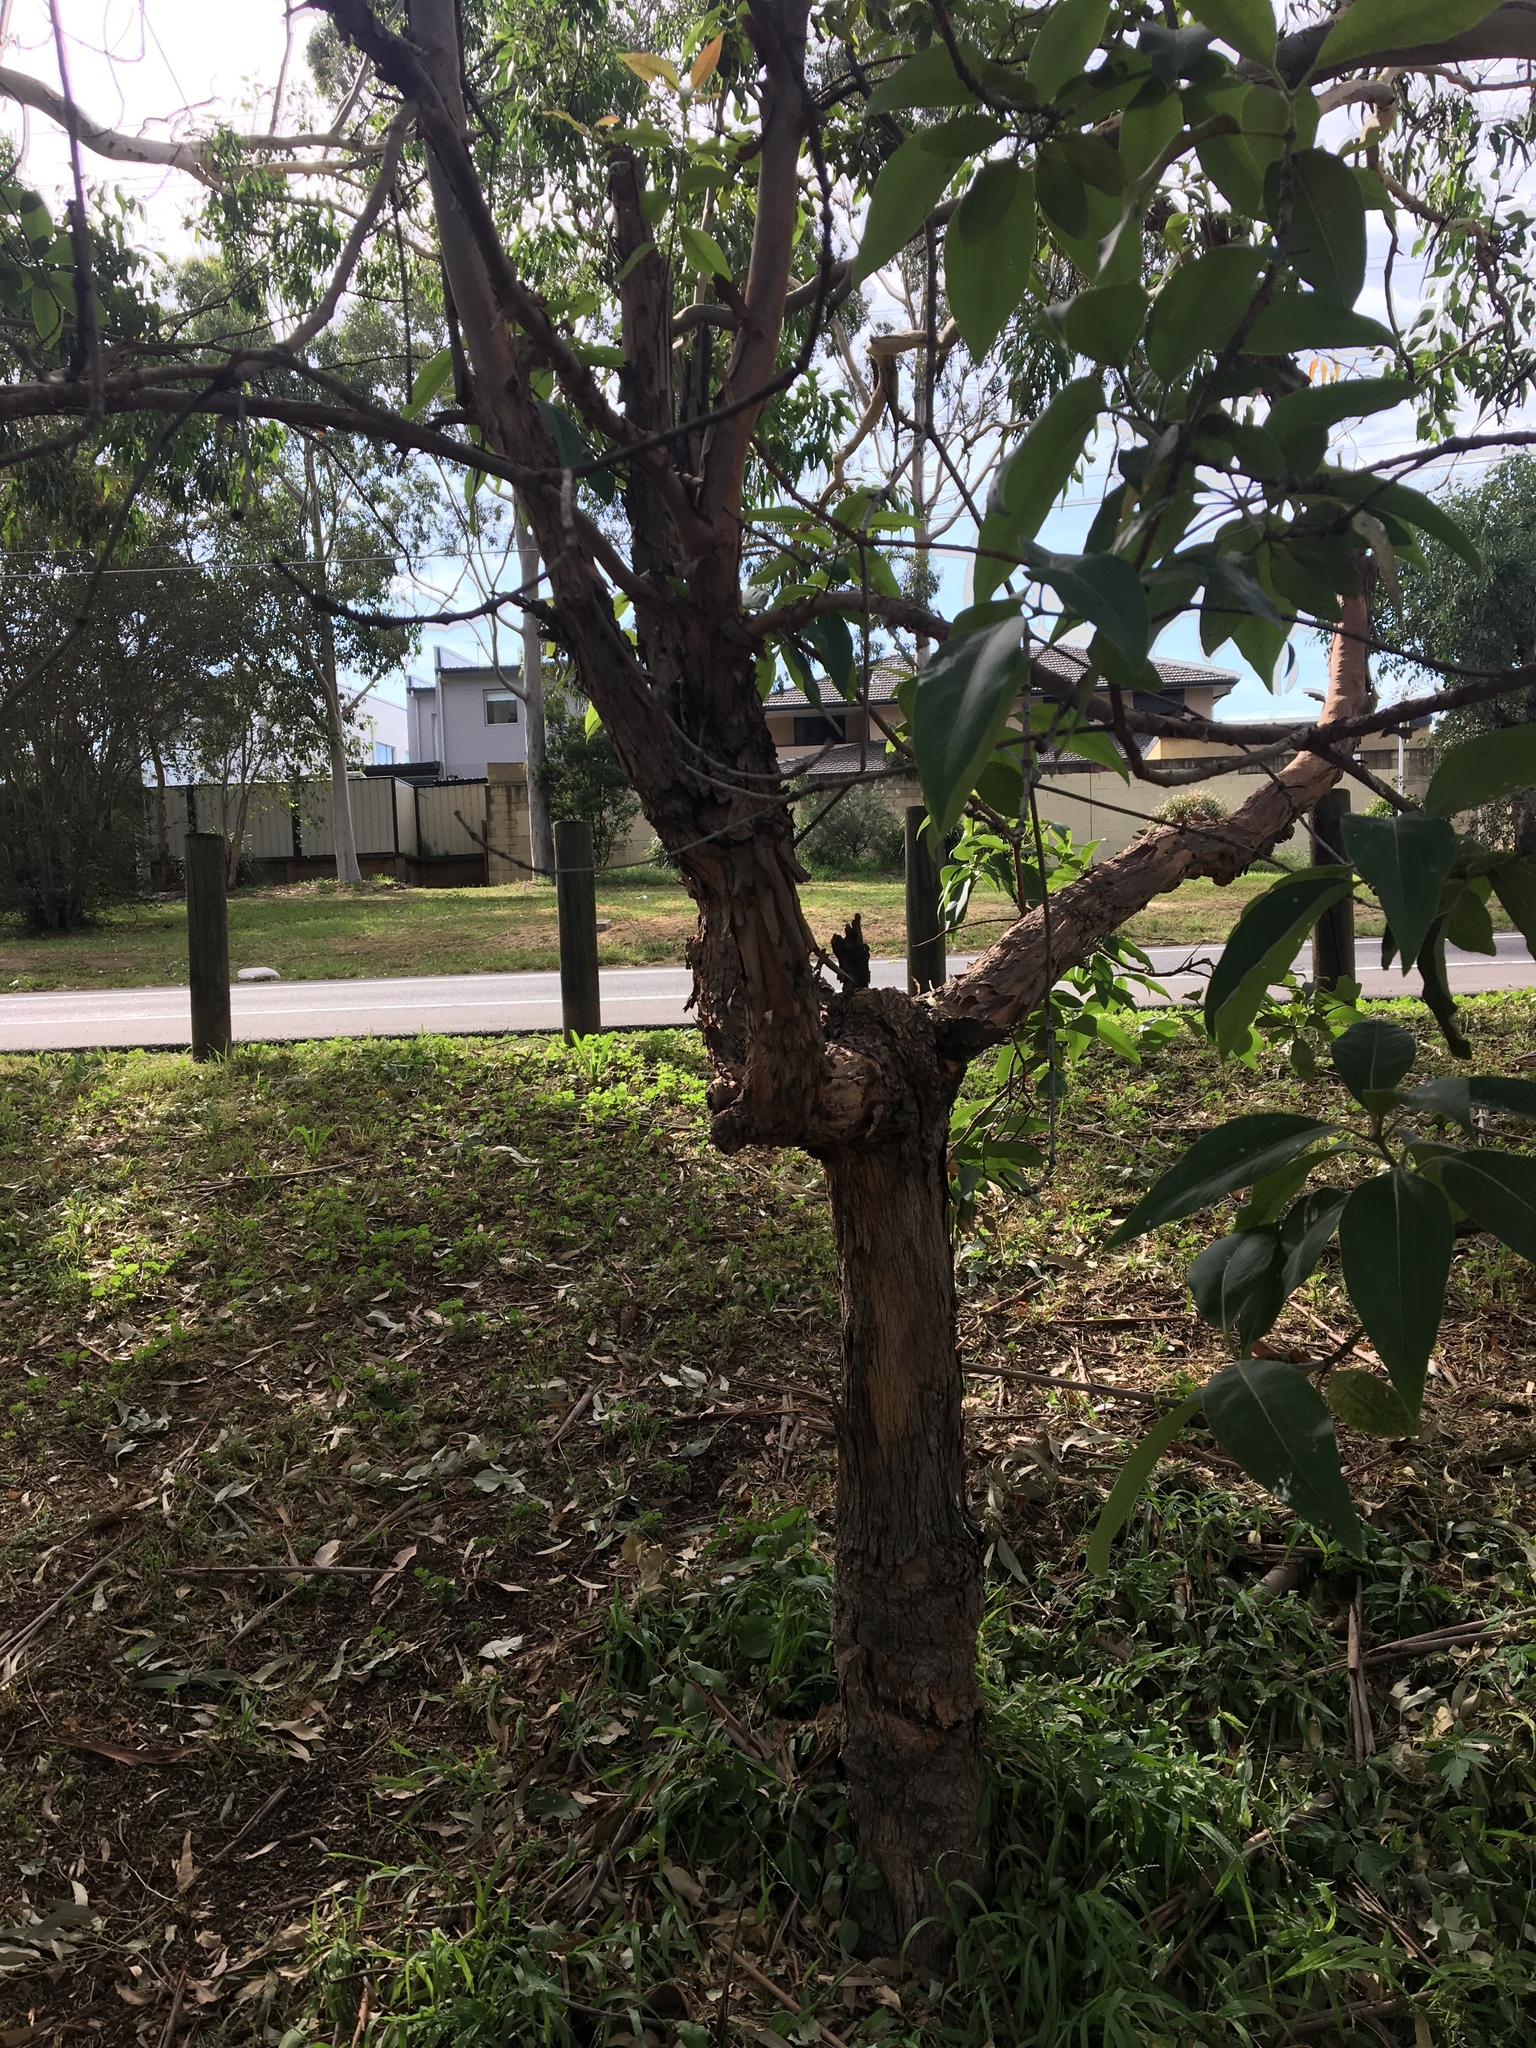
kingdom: Plantae
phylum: Tracheophyta
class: Magnoliopsida
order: Myrtales
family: Myrtaceae
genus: Lophostemon
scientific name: Lophostemon confertus
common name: Brisbane box
